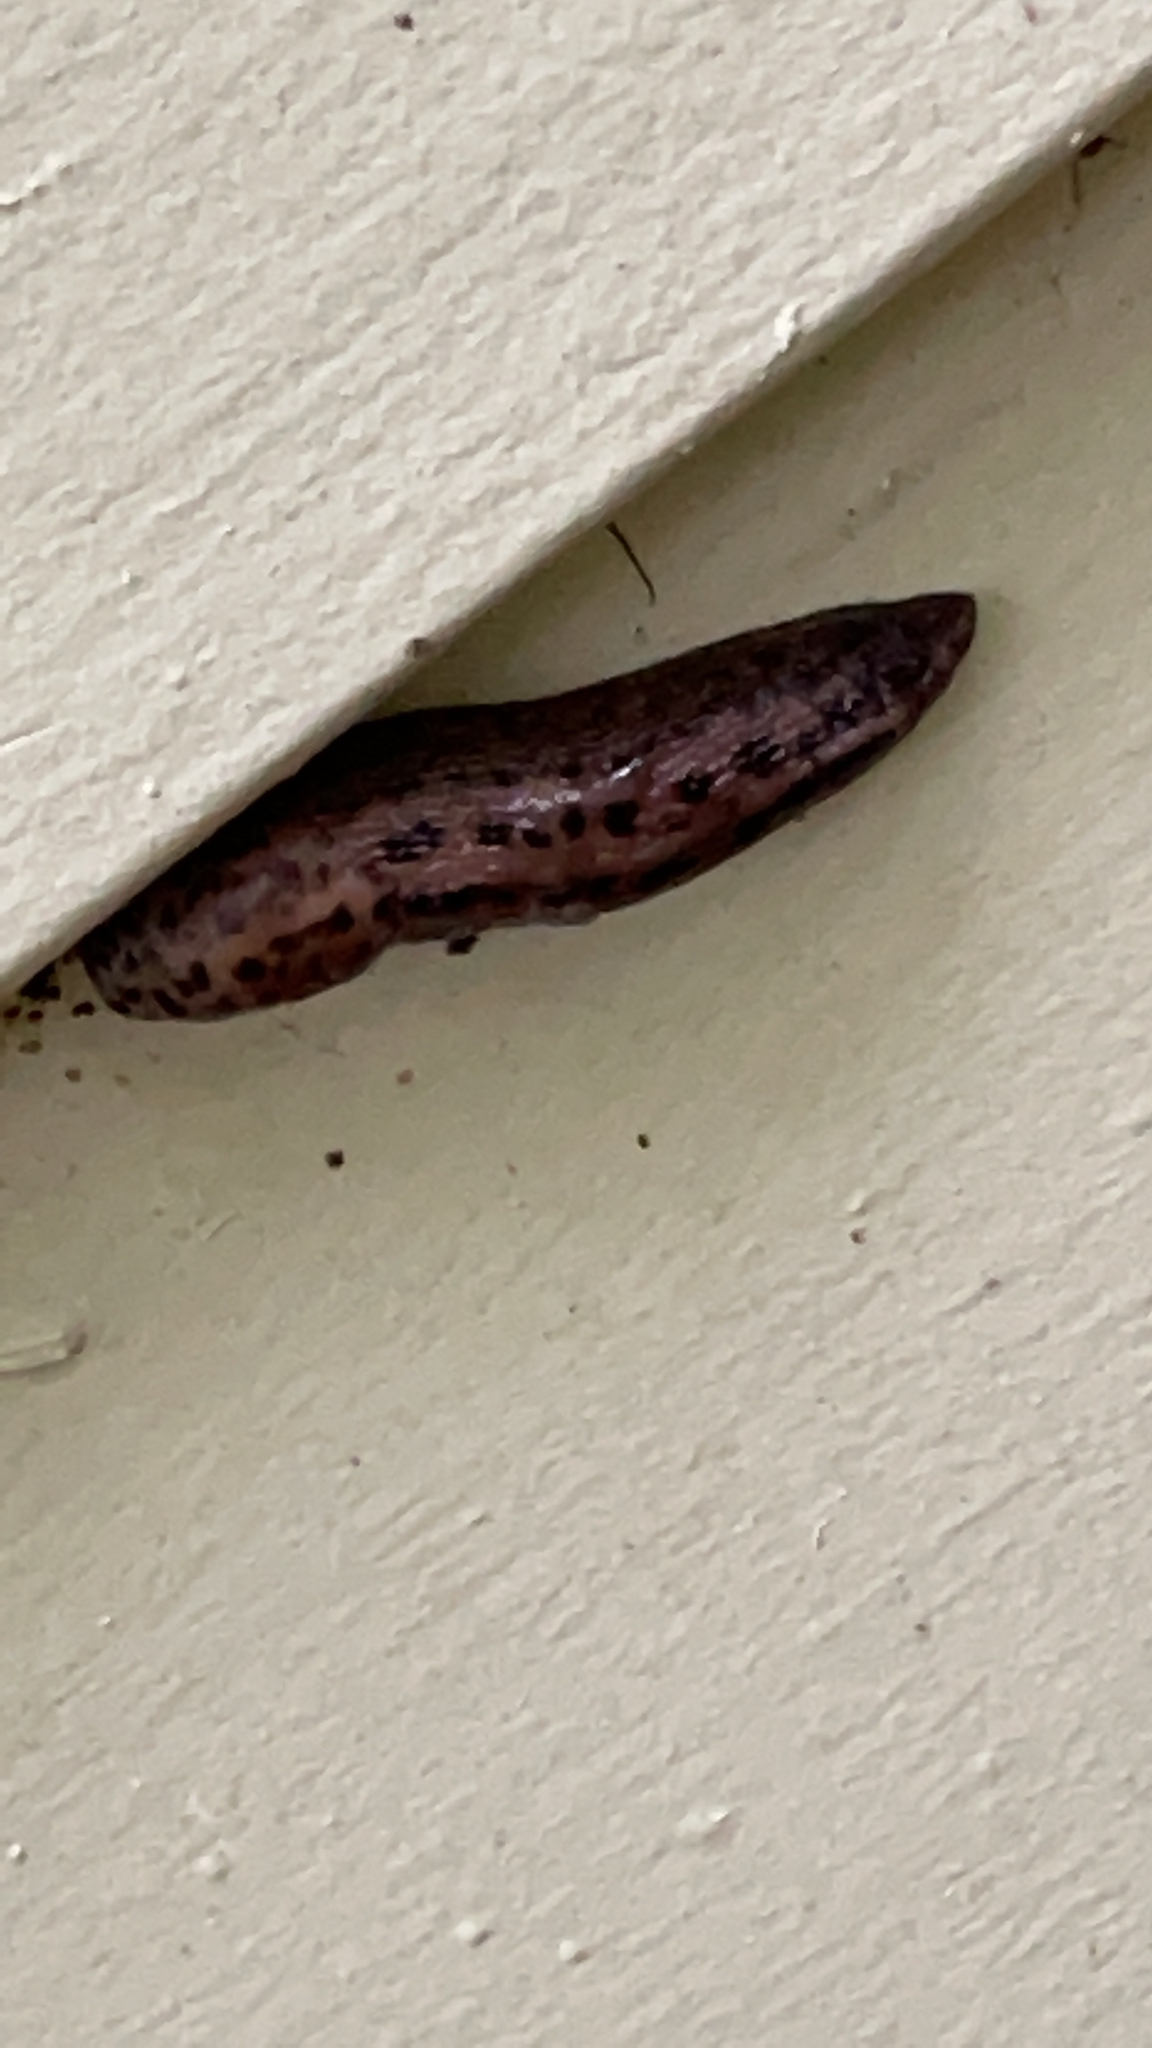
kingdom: Animalia
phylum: Mollusca
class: Gastropoda
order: Stylommatophora
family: Limacidae
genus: Limax
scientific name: Limax maximus
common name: Great grey slug
